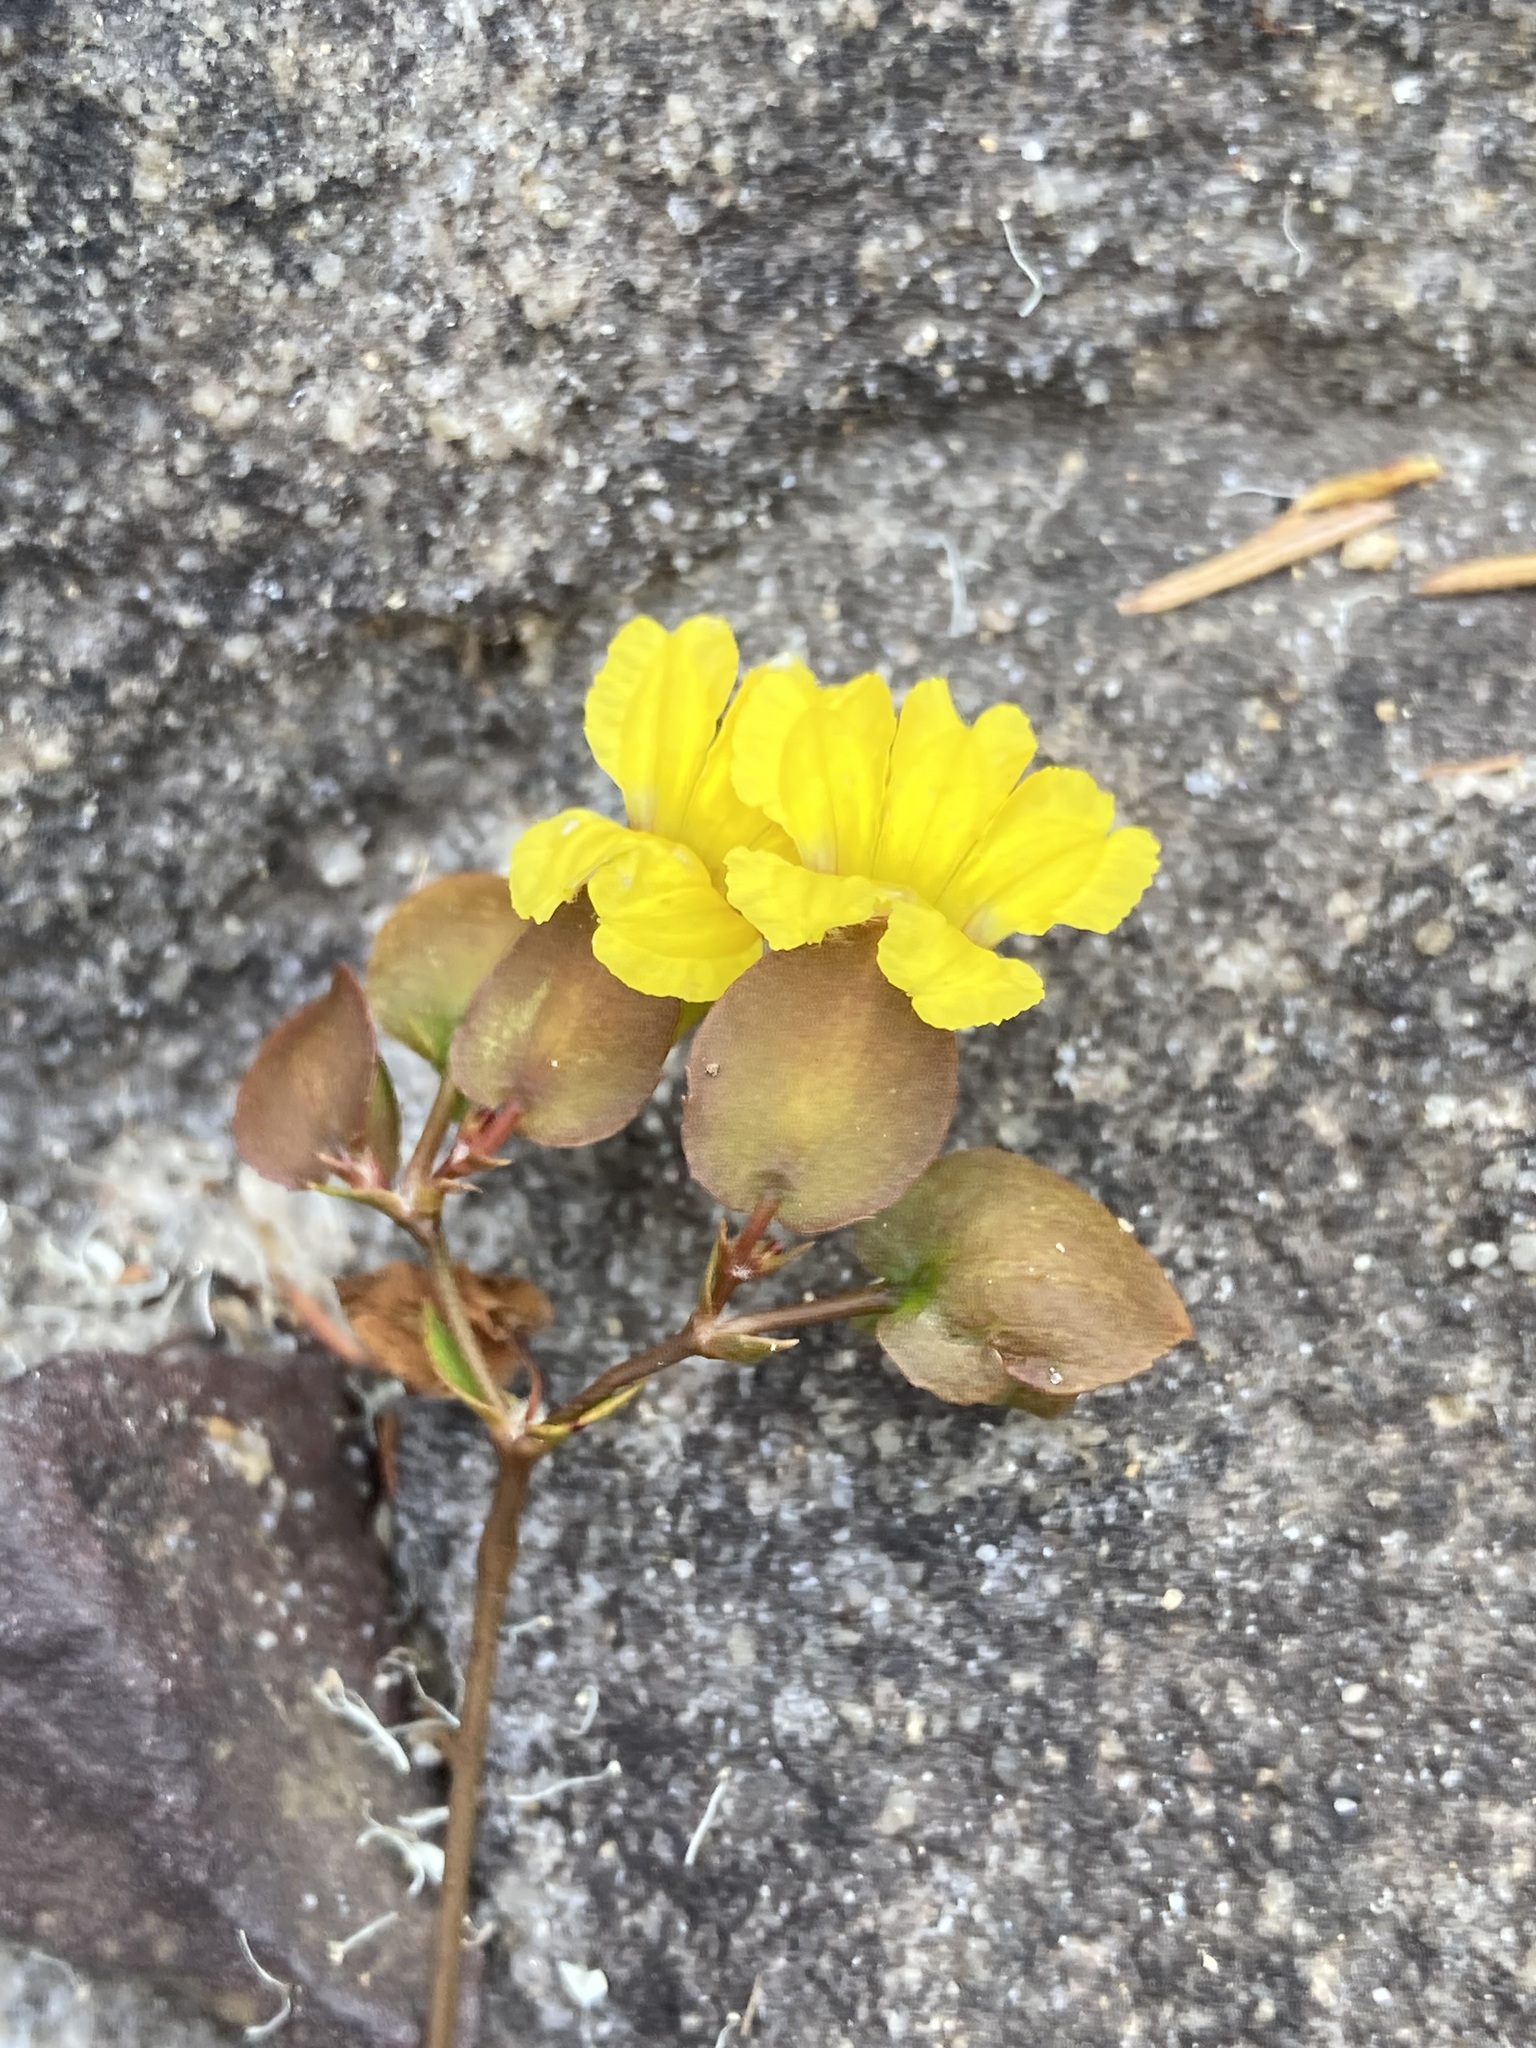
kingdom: Plantae
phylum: Tracheophyta
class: Magnoliopsida
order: Asterales
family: Goodeniaceae
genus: Goodenia
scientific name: Goodenia caroliniana
